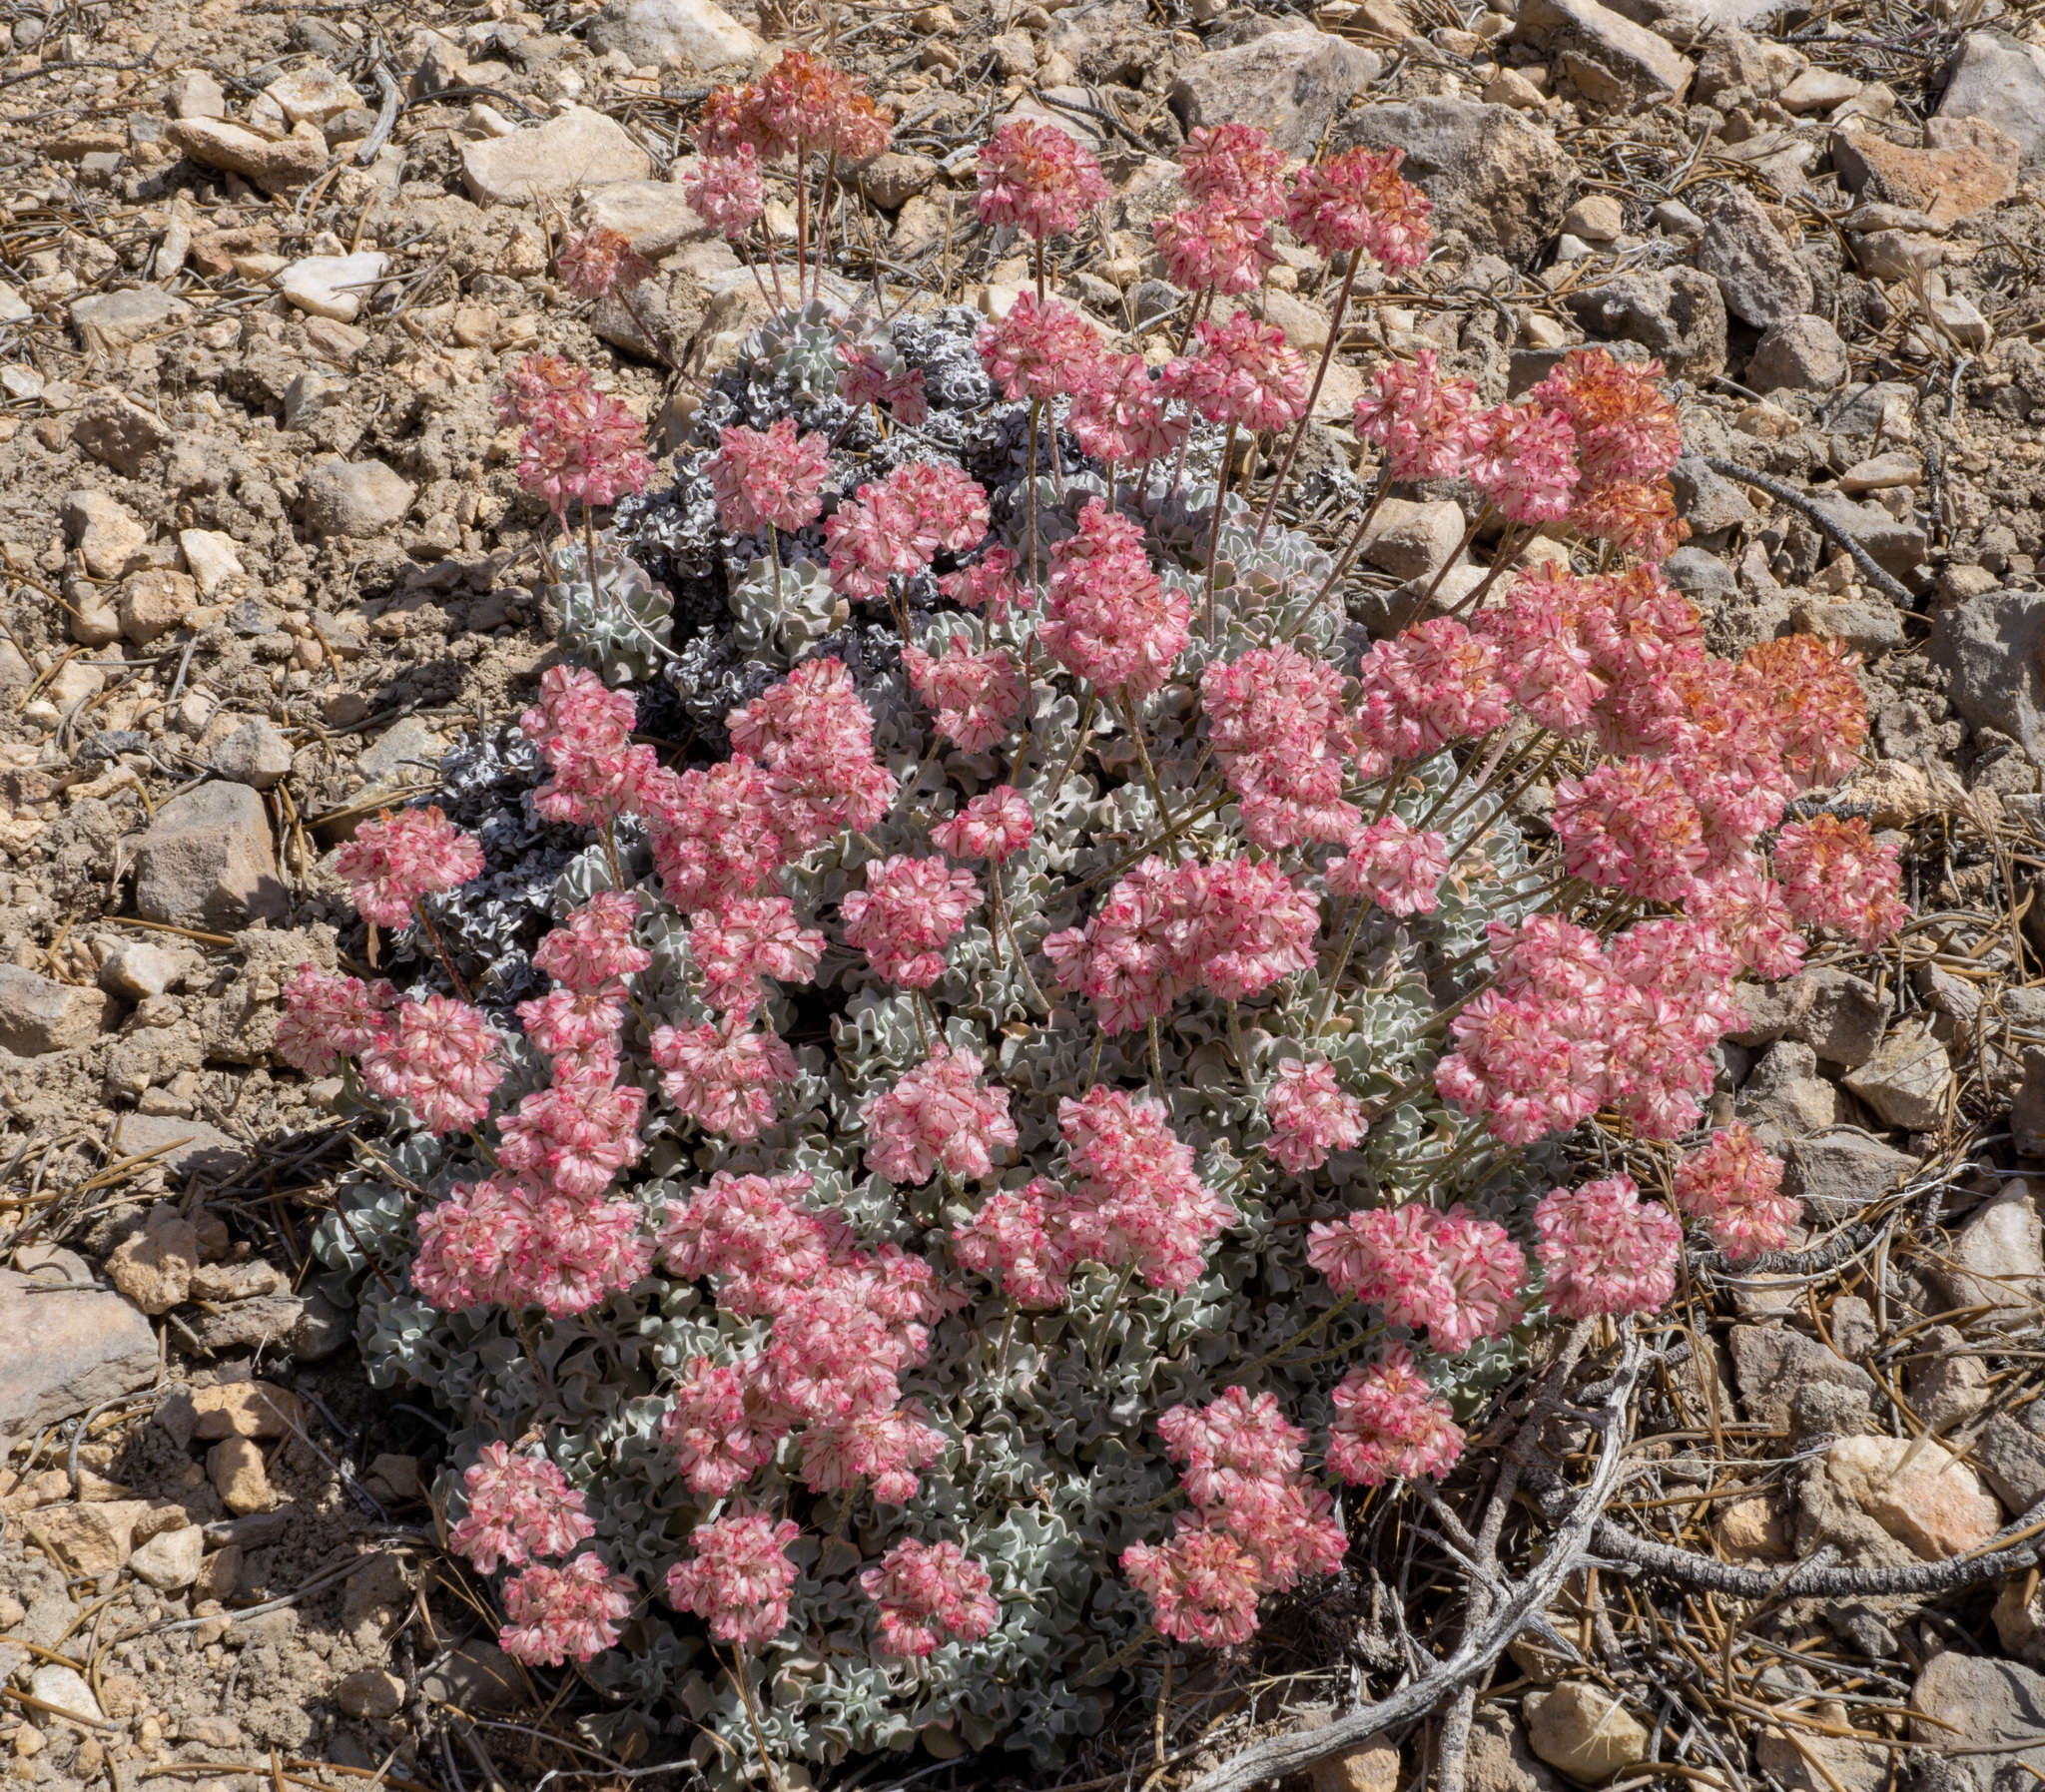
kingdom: Plantae
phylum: Tracheophyta
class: Magnoliopsida
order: Caryophyllales
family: Polygonaceae
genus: Eriogonum
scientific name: Eriogonum ovalifolium
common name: Cushion buckwheat
